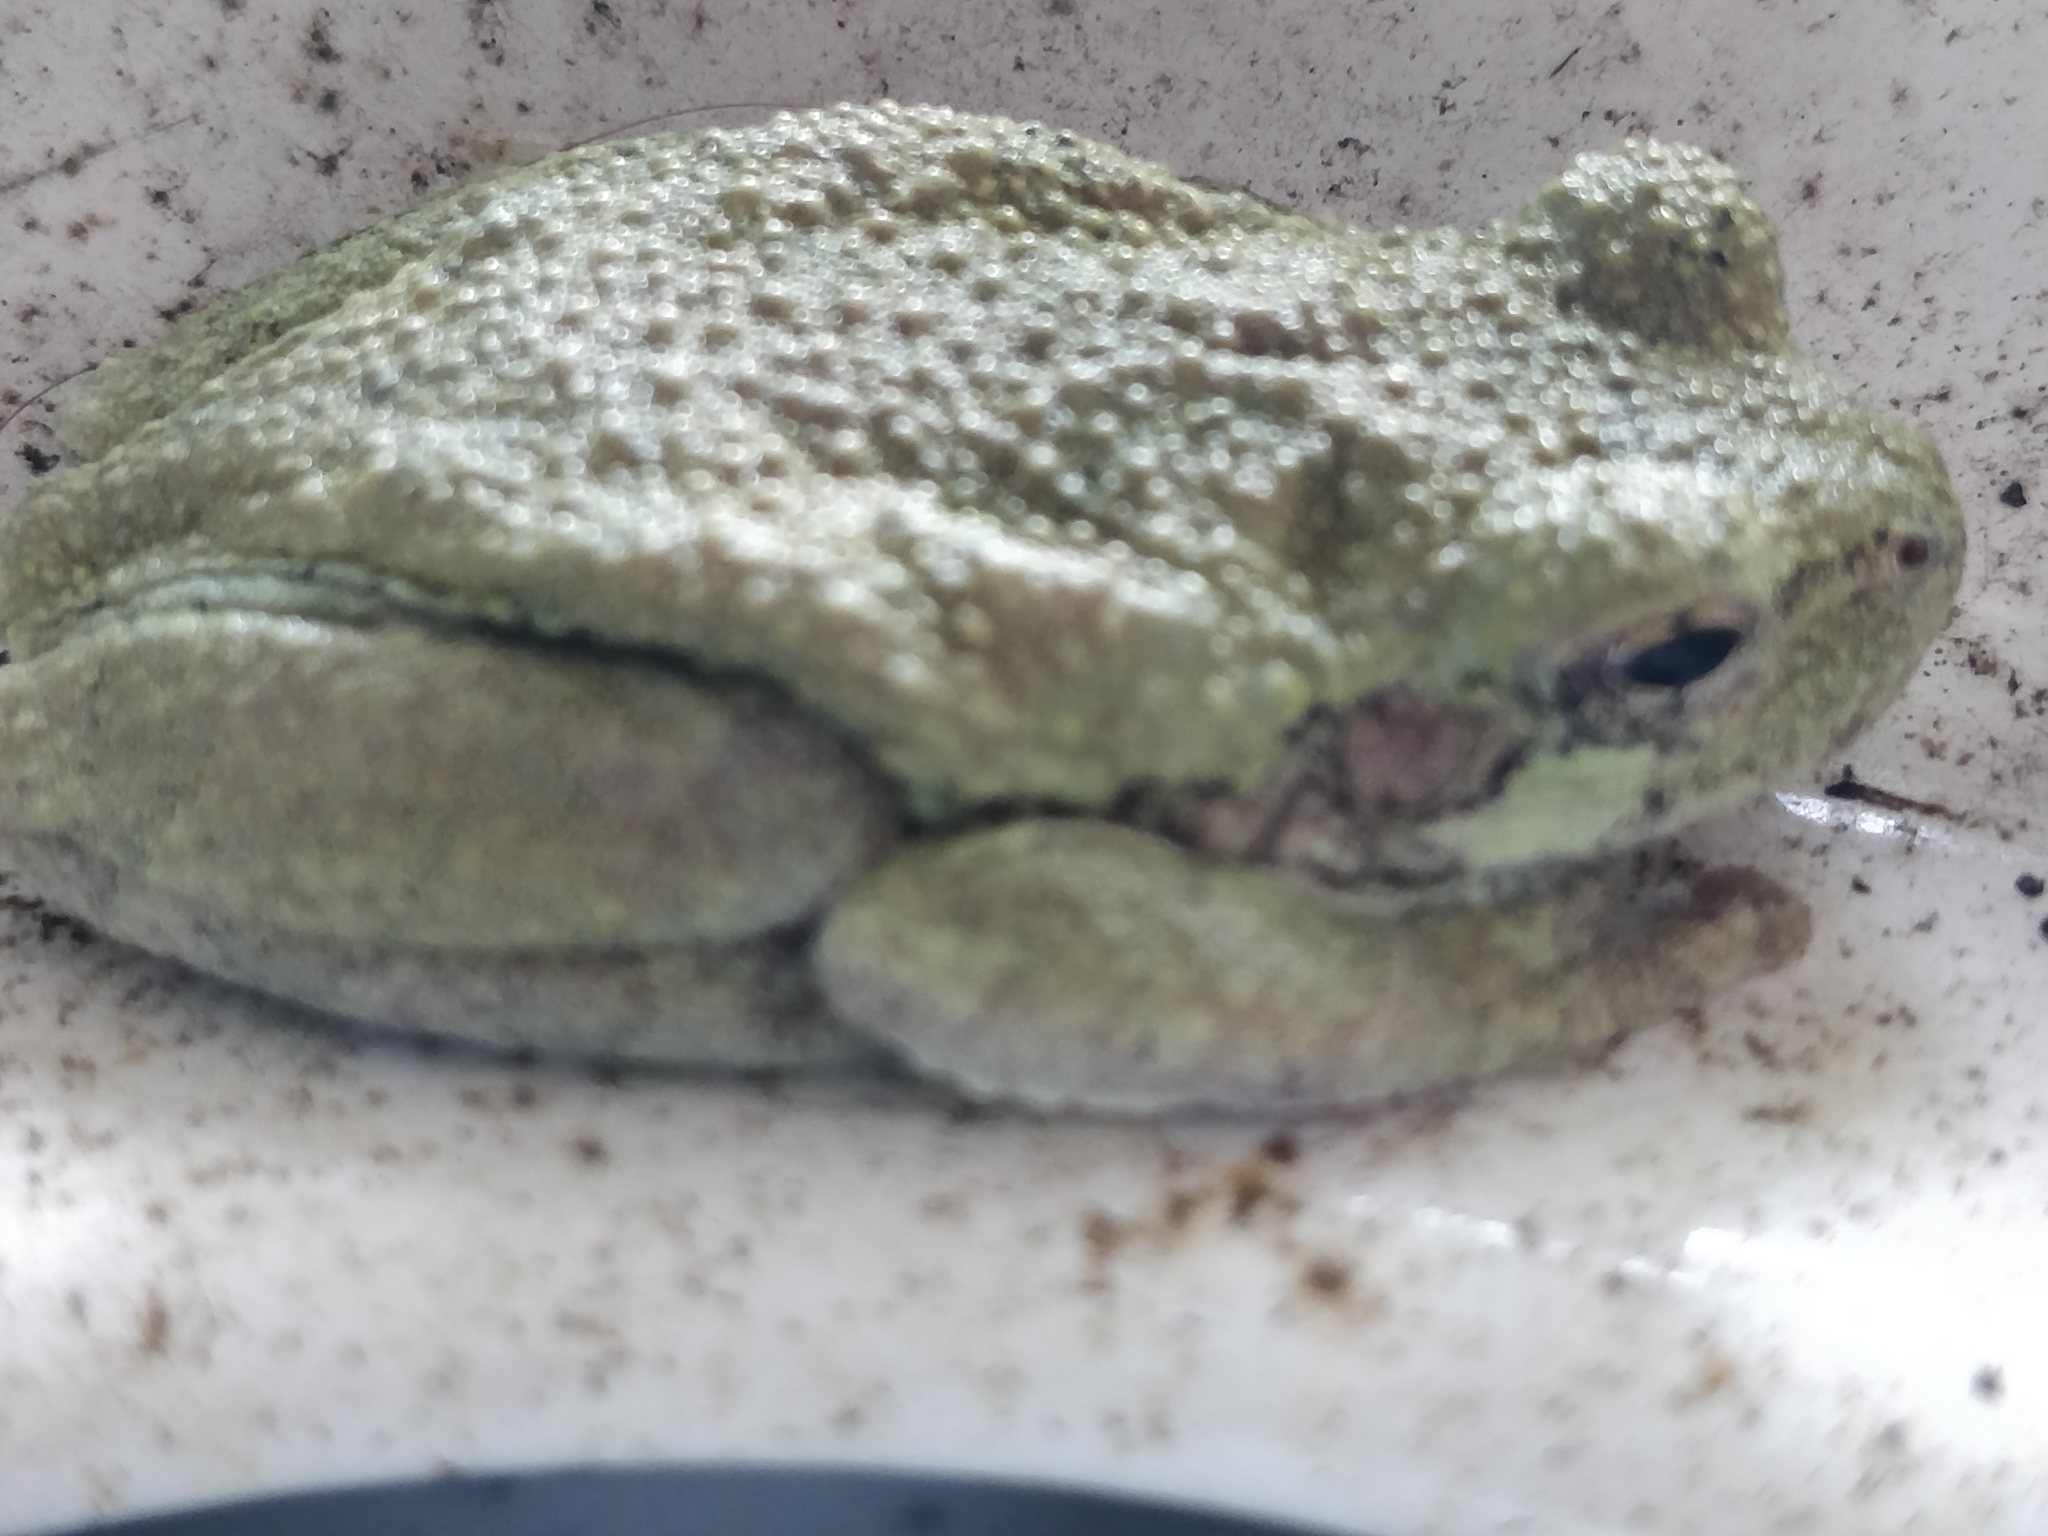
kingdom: Animalia
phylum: Chordata
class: Amphibia
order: Anura
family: Hylidae
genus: Hyla
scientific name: Hyla
